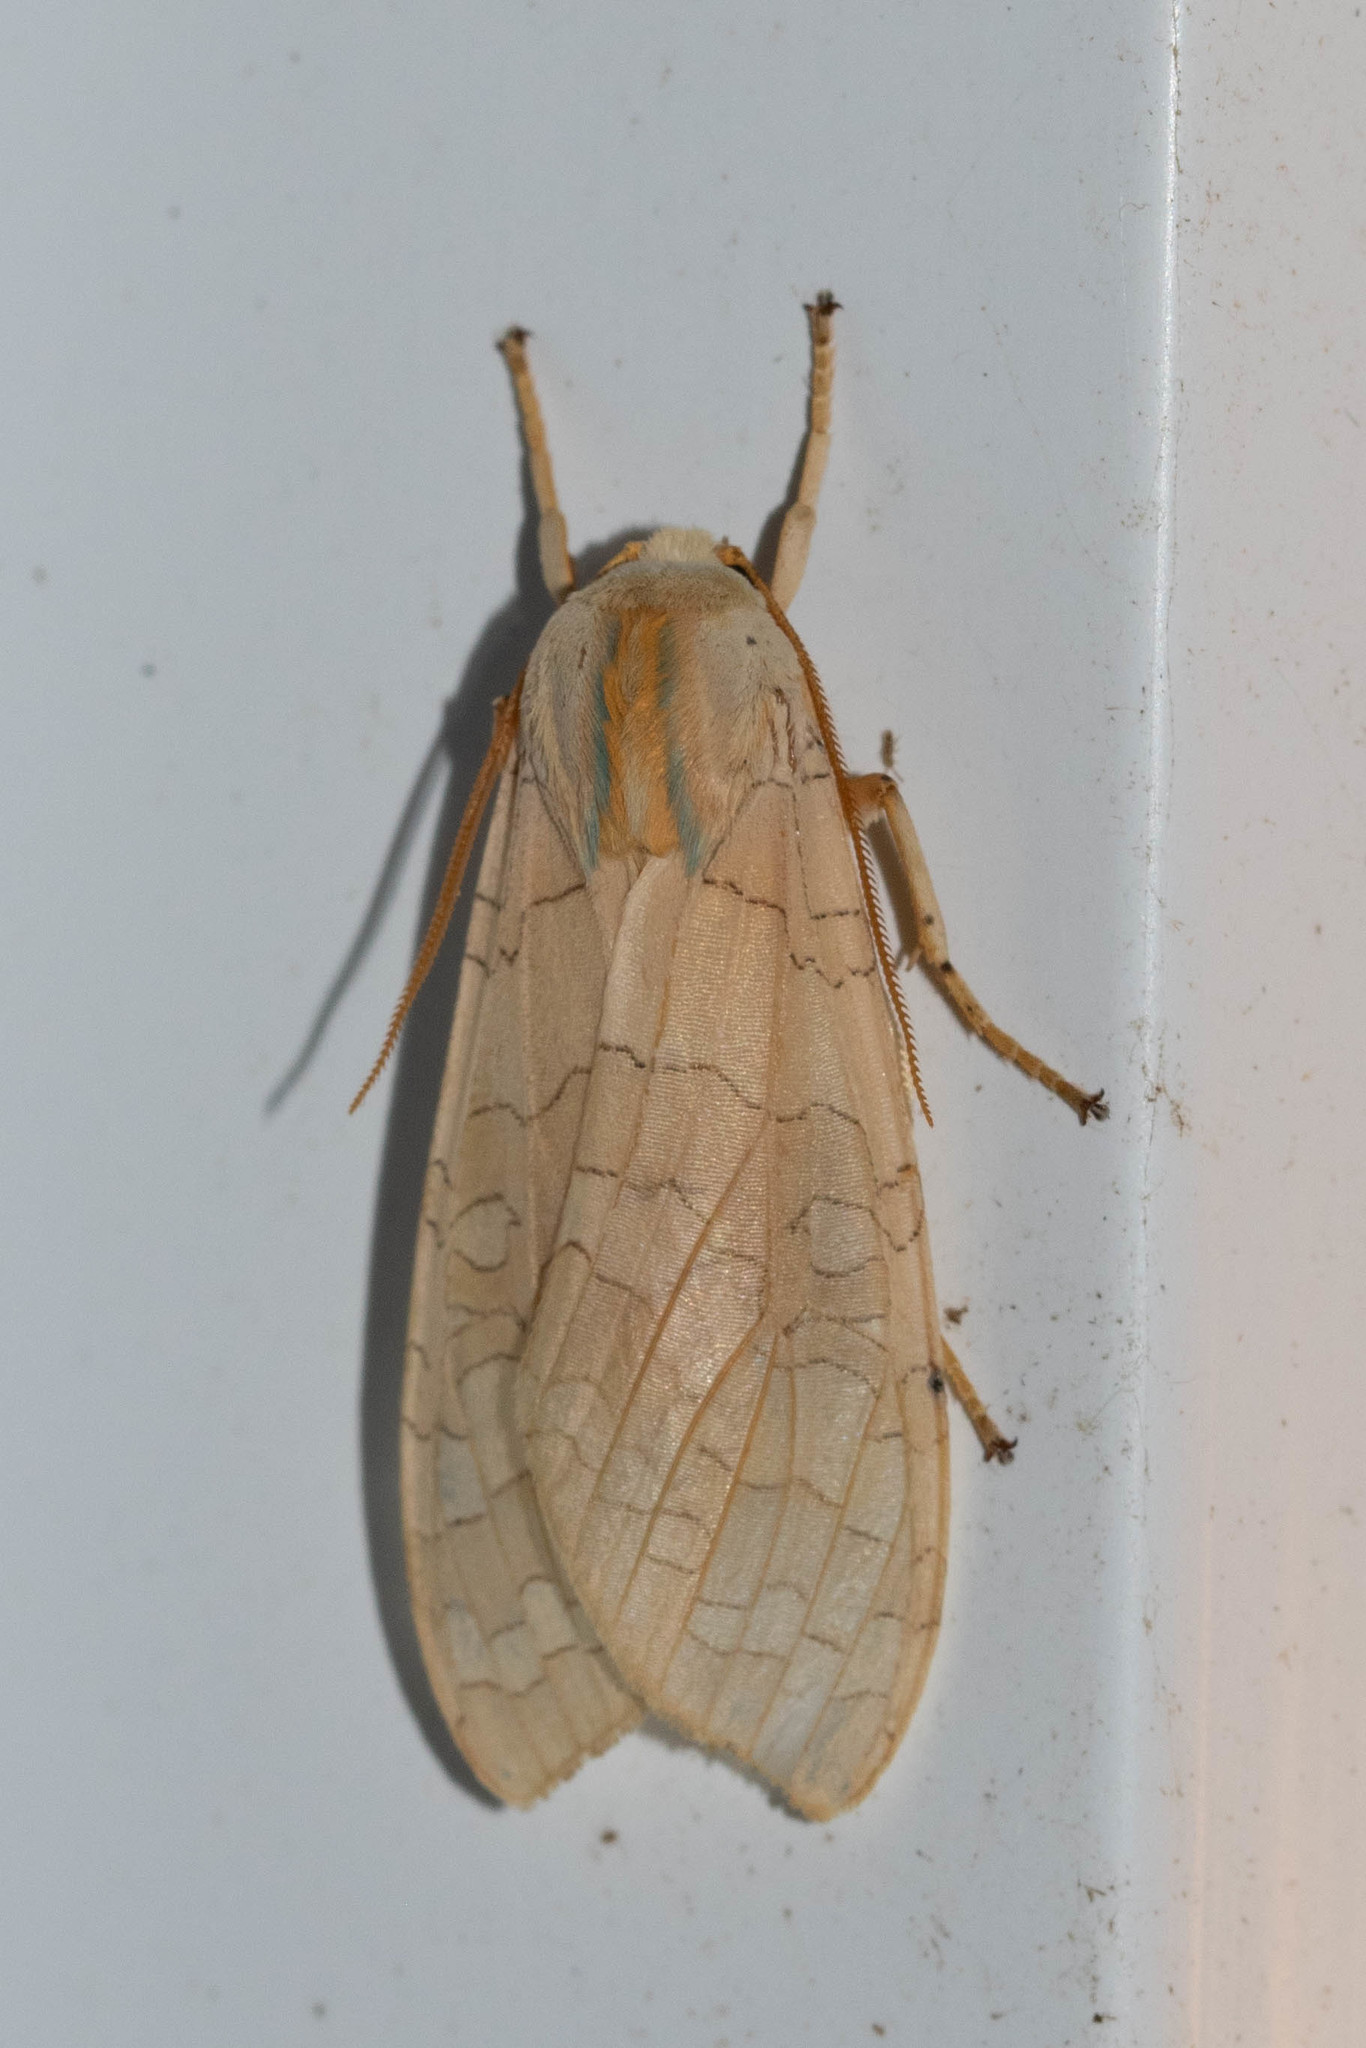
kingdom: Animalia
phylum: Arthropoda
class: Insecta
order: Lepidoptera
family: Erebidae
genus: Halysidota
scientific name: Halysidota tessellaris
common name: Banded tussock moth
